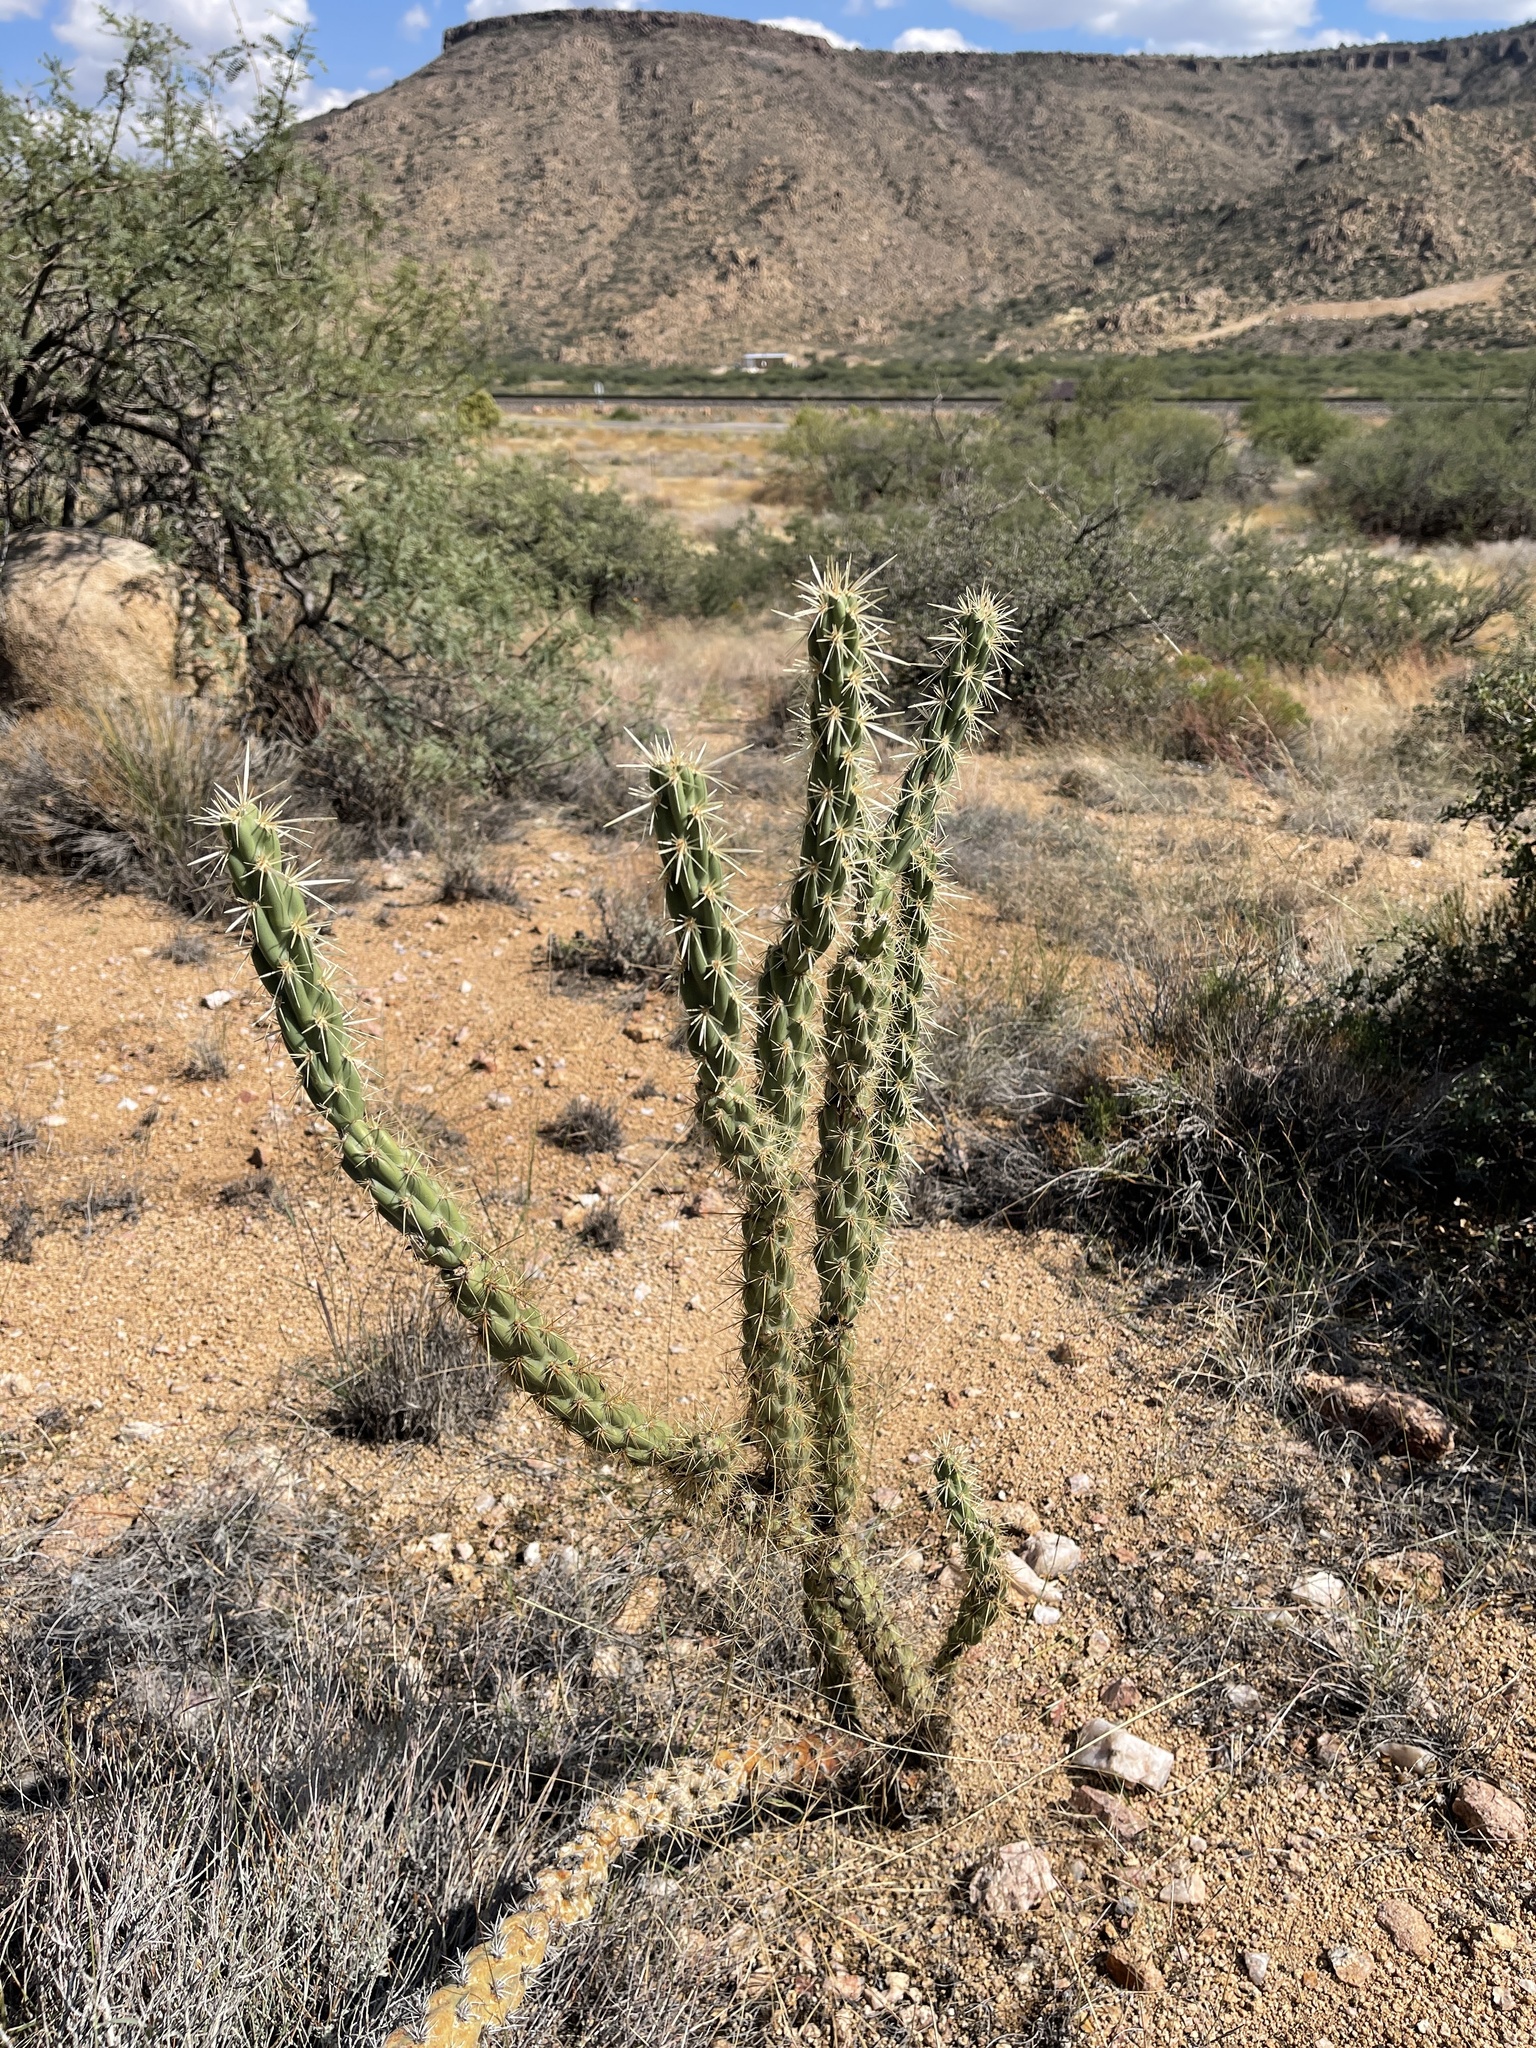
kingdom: Plantae
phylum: Tracheophyta
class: Magnoliopsida
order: Caryophyllales
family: Cactaceae
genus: Cylindropuntia
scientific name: Cylindropuntia acanthocarpa
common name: Buckhorn cholla
